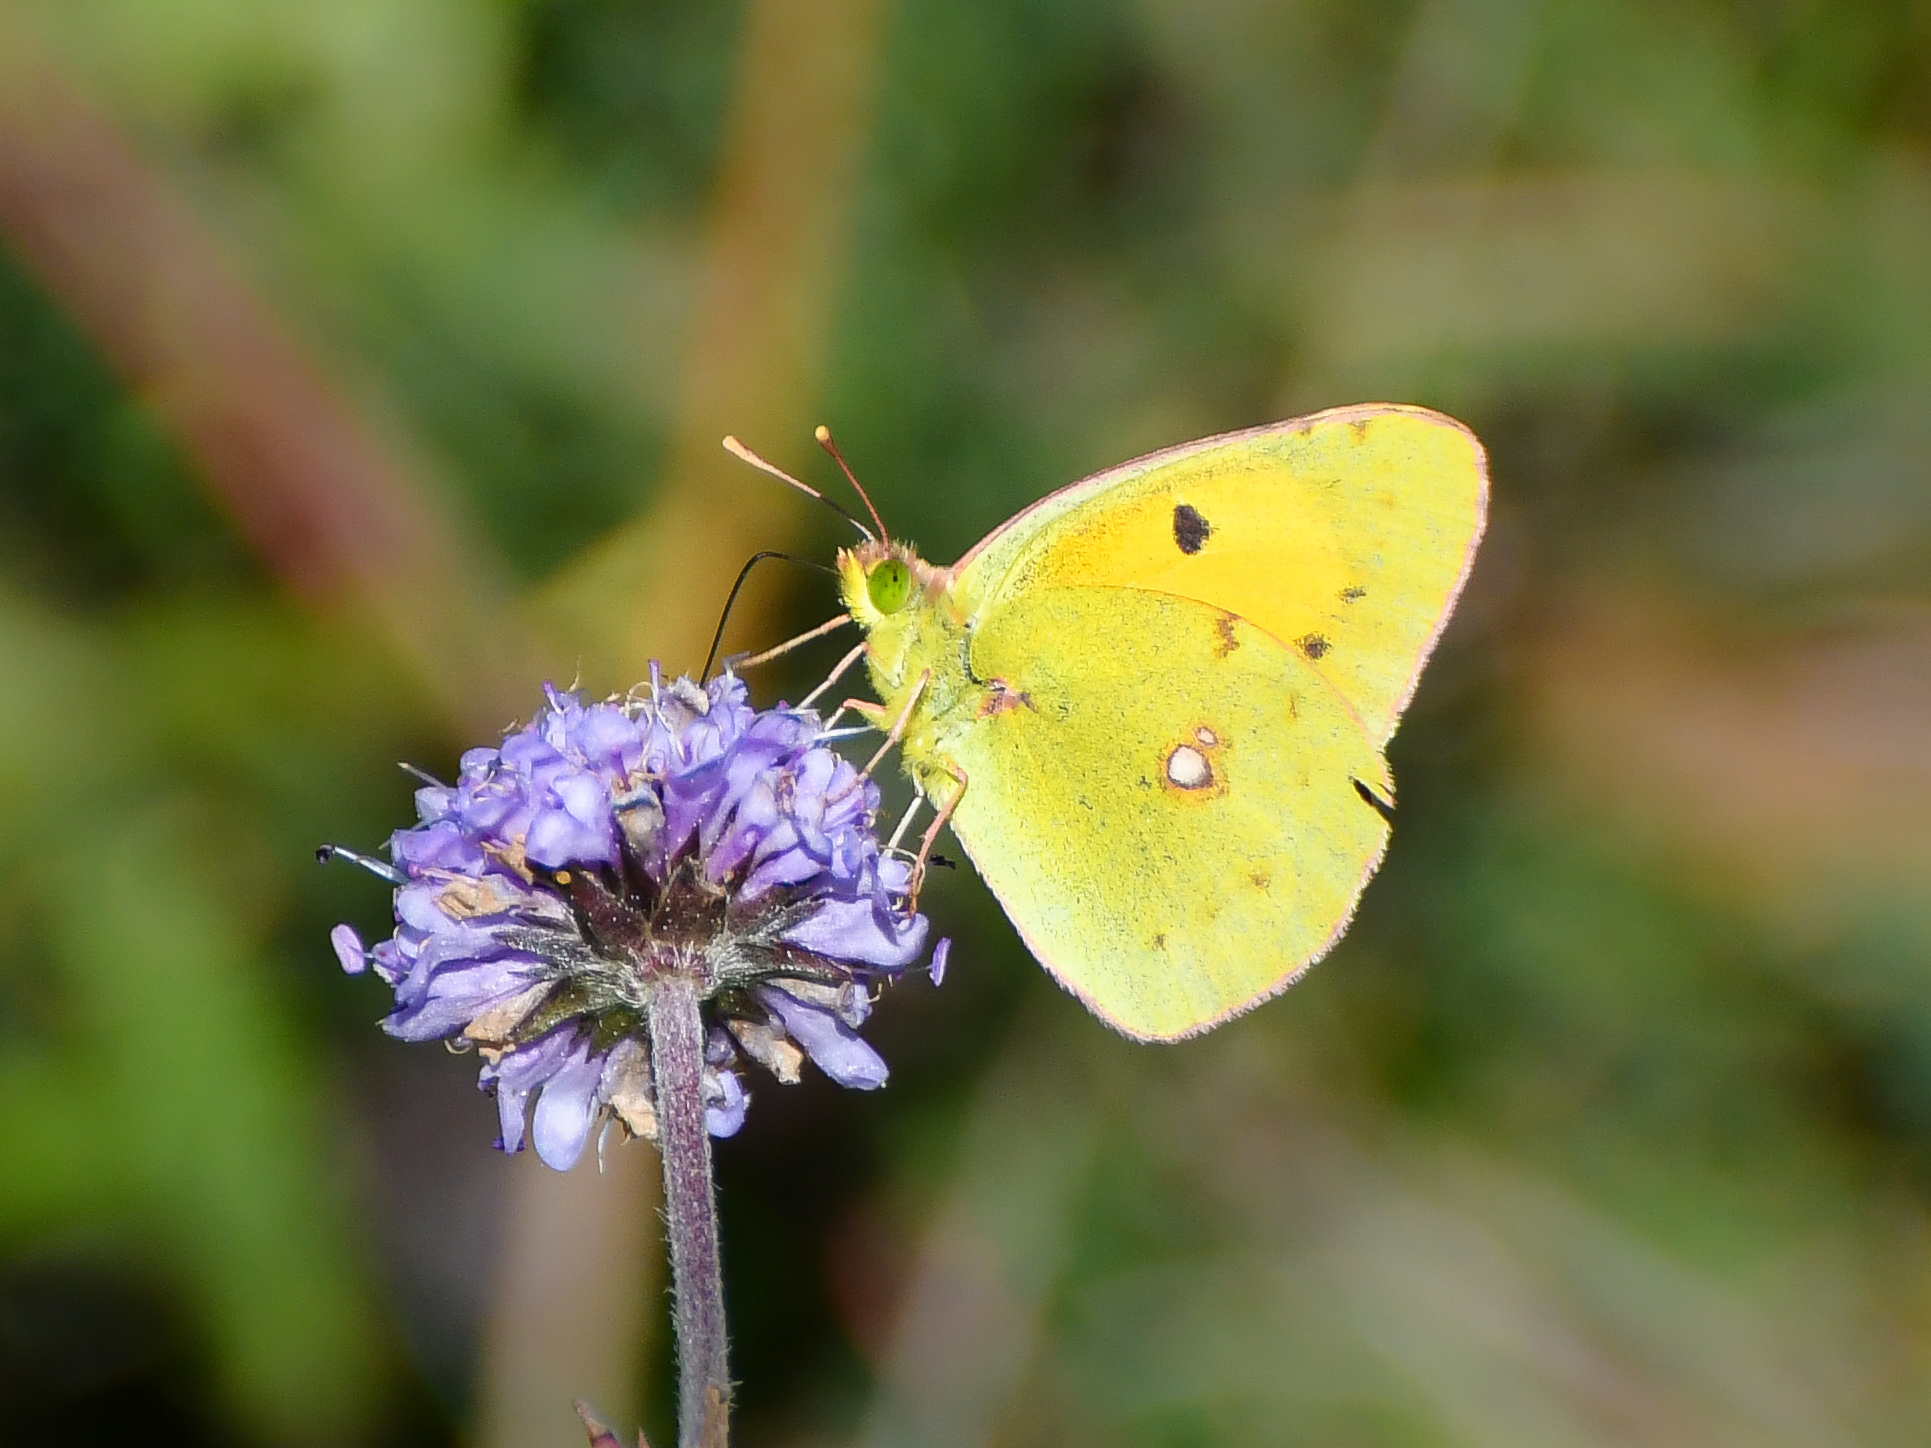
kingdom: Animalia
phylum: Arthropoda
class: Insecta
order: Lepidoptera
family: Pieridae
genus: Colias
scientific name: Colias croceus
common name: Clouded yellow
